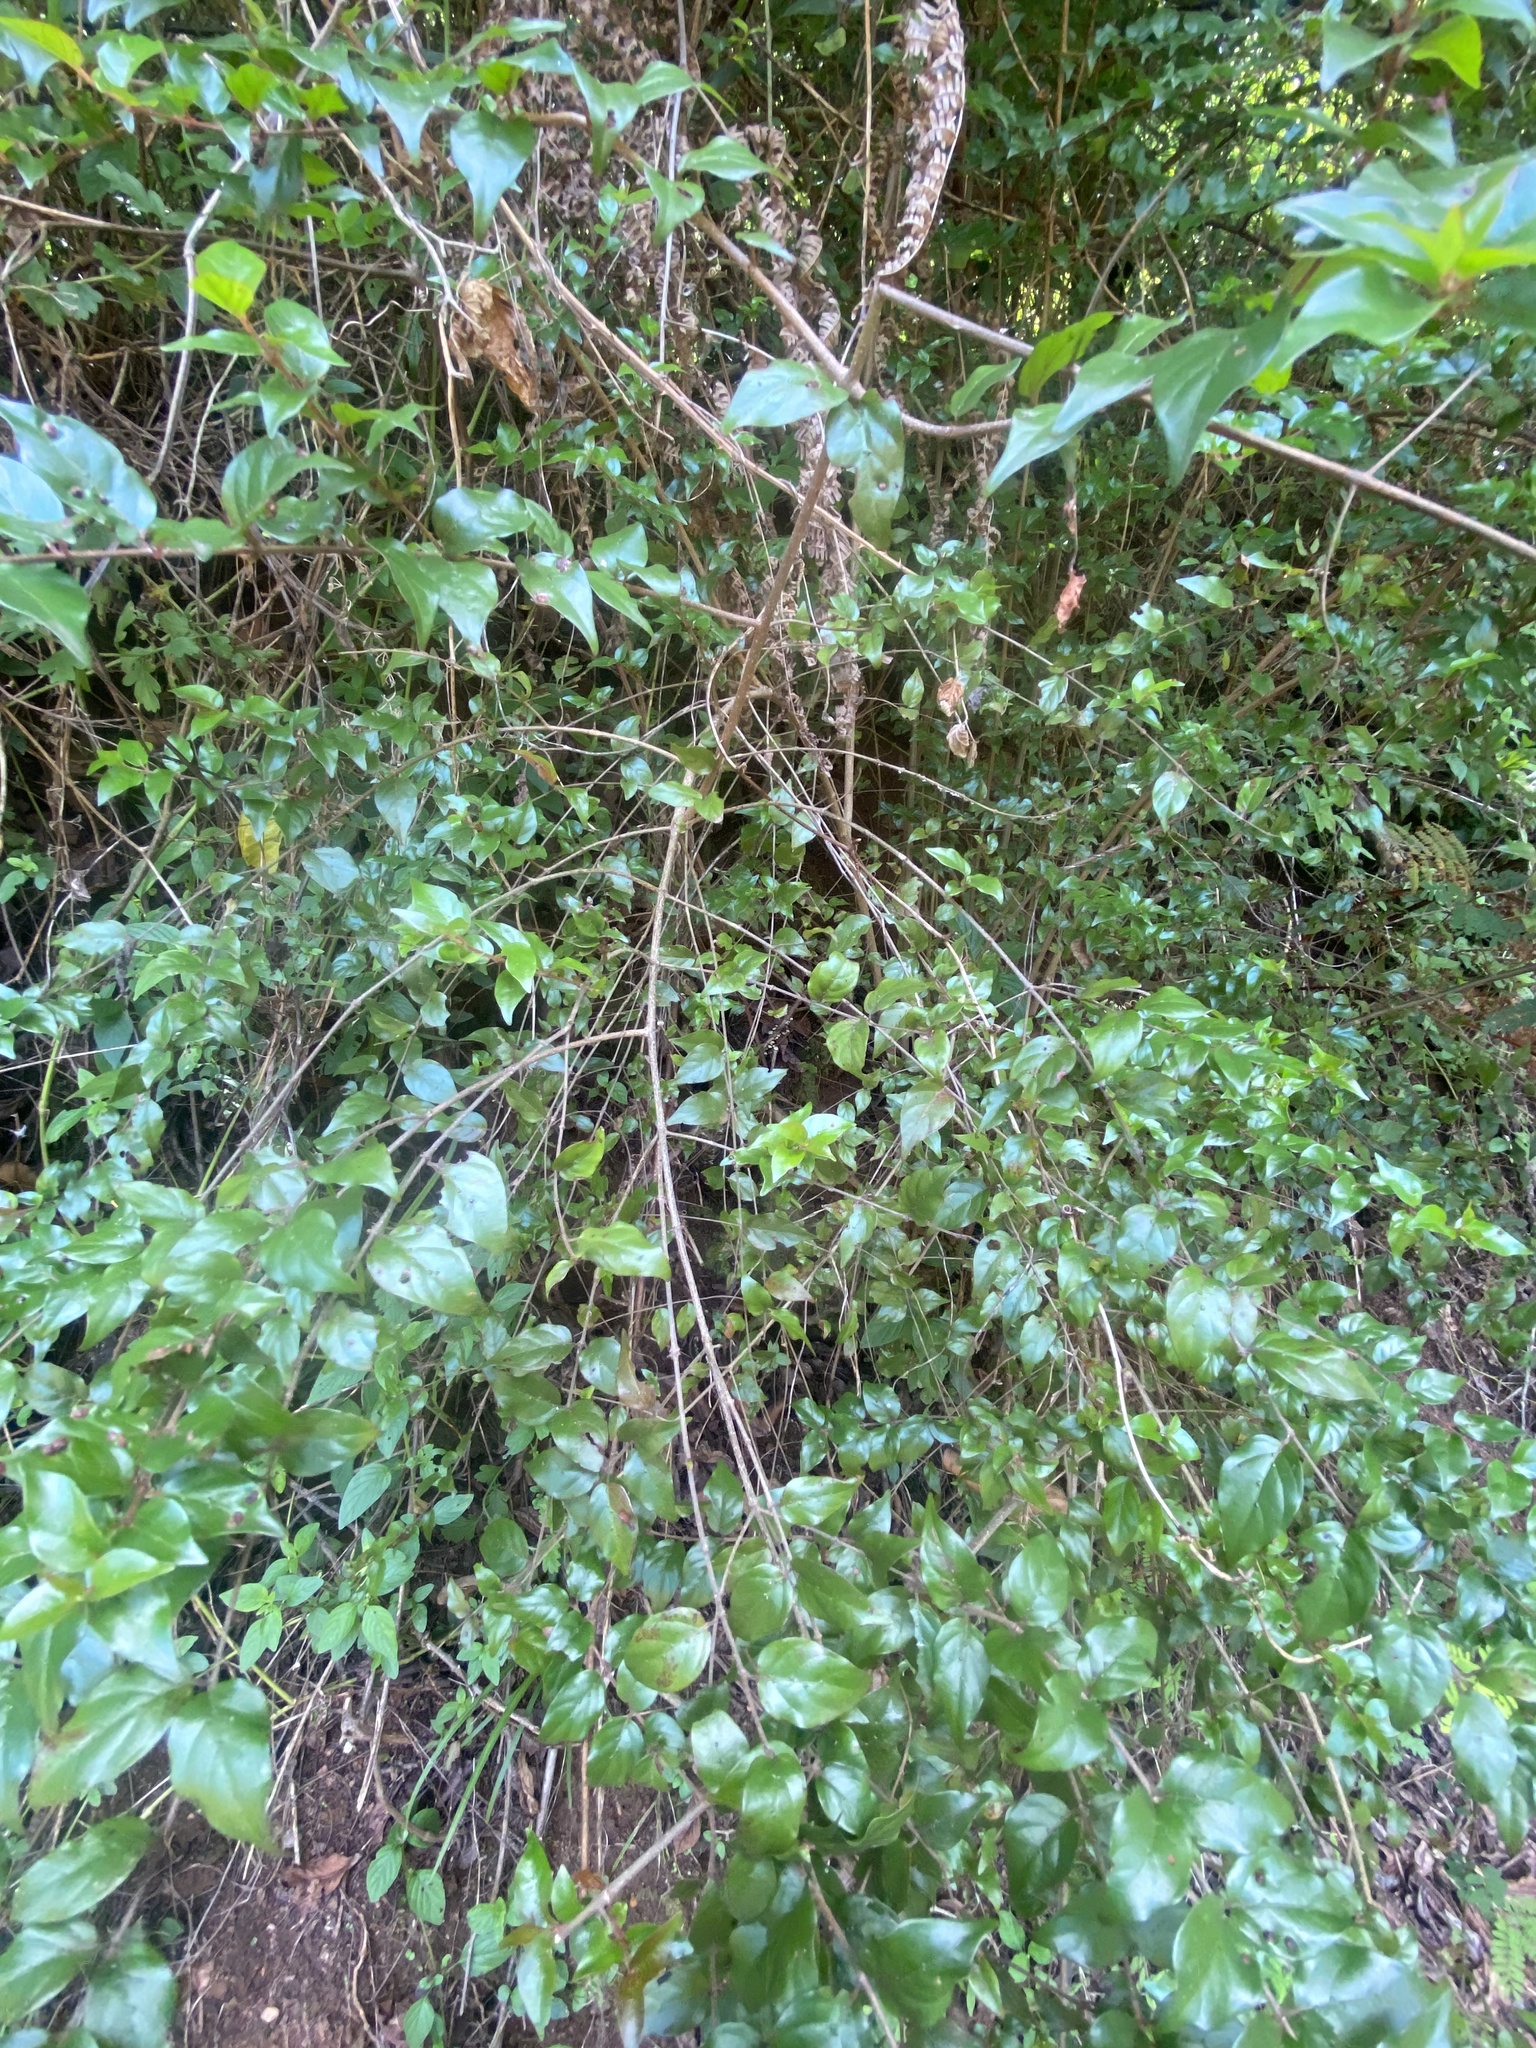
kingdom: Plantae
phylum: Tracheophyta
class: Magnoliopsida
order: Gentianales
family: Rubiaceae
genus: Cephalanthus
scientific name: Cephalanthus natalensis
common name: Strawberry bush
